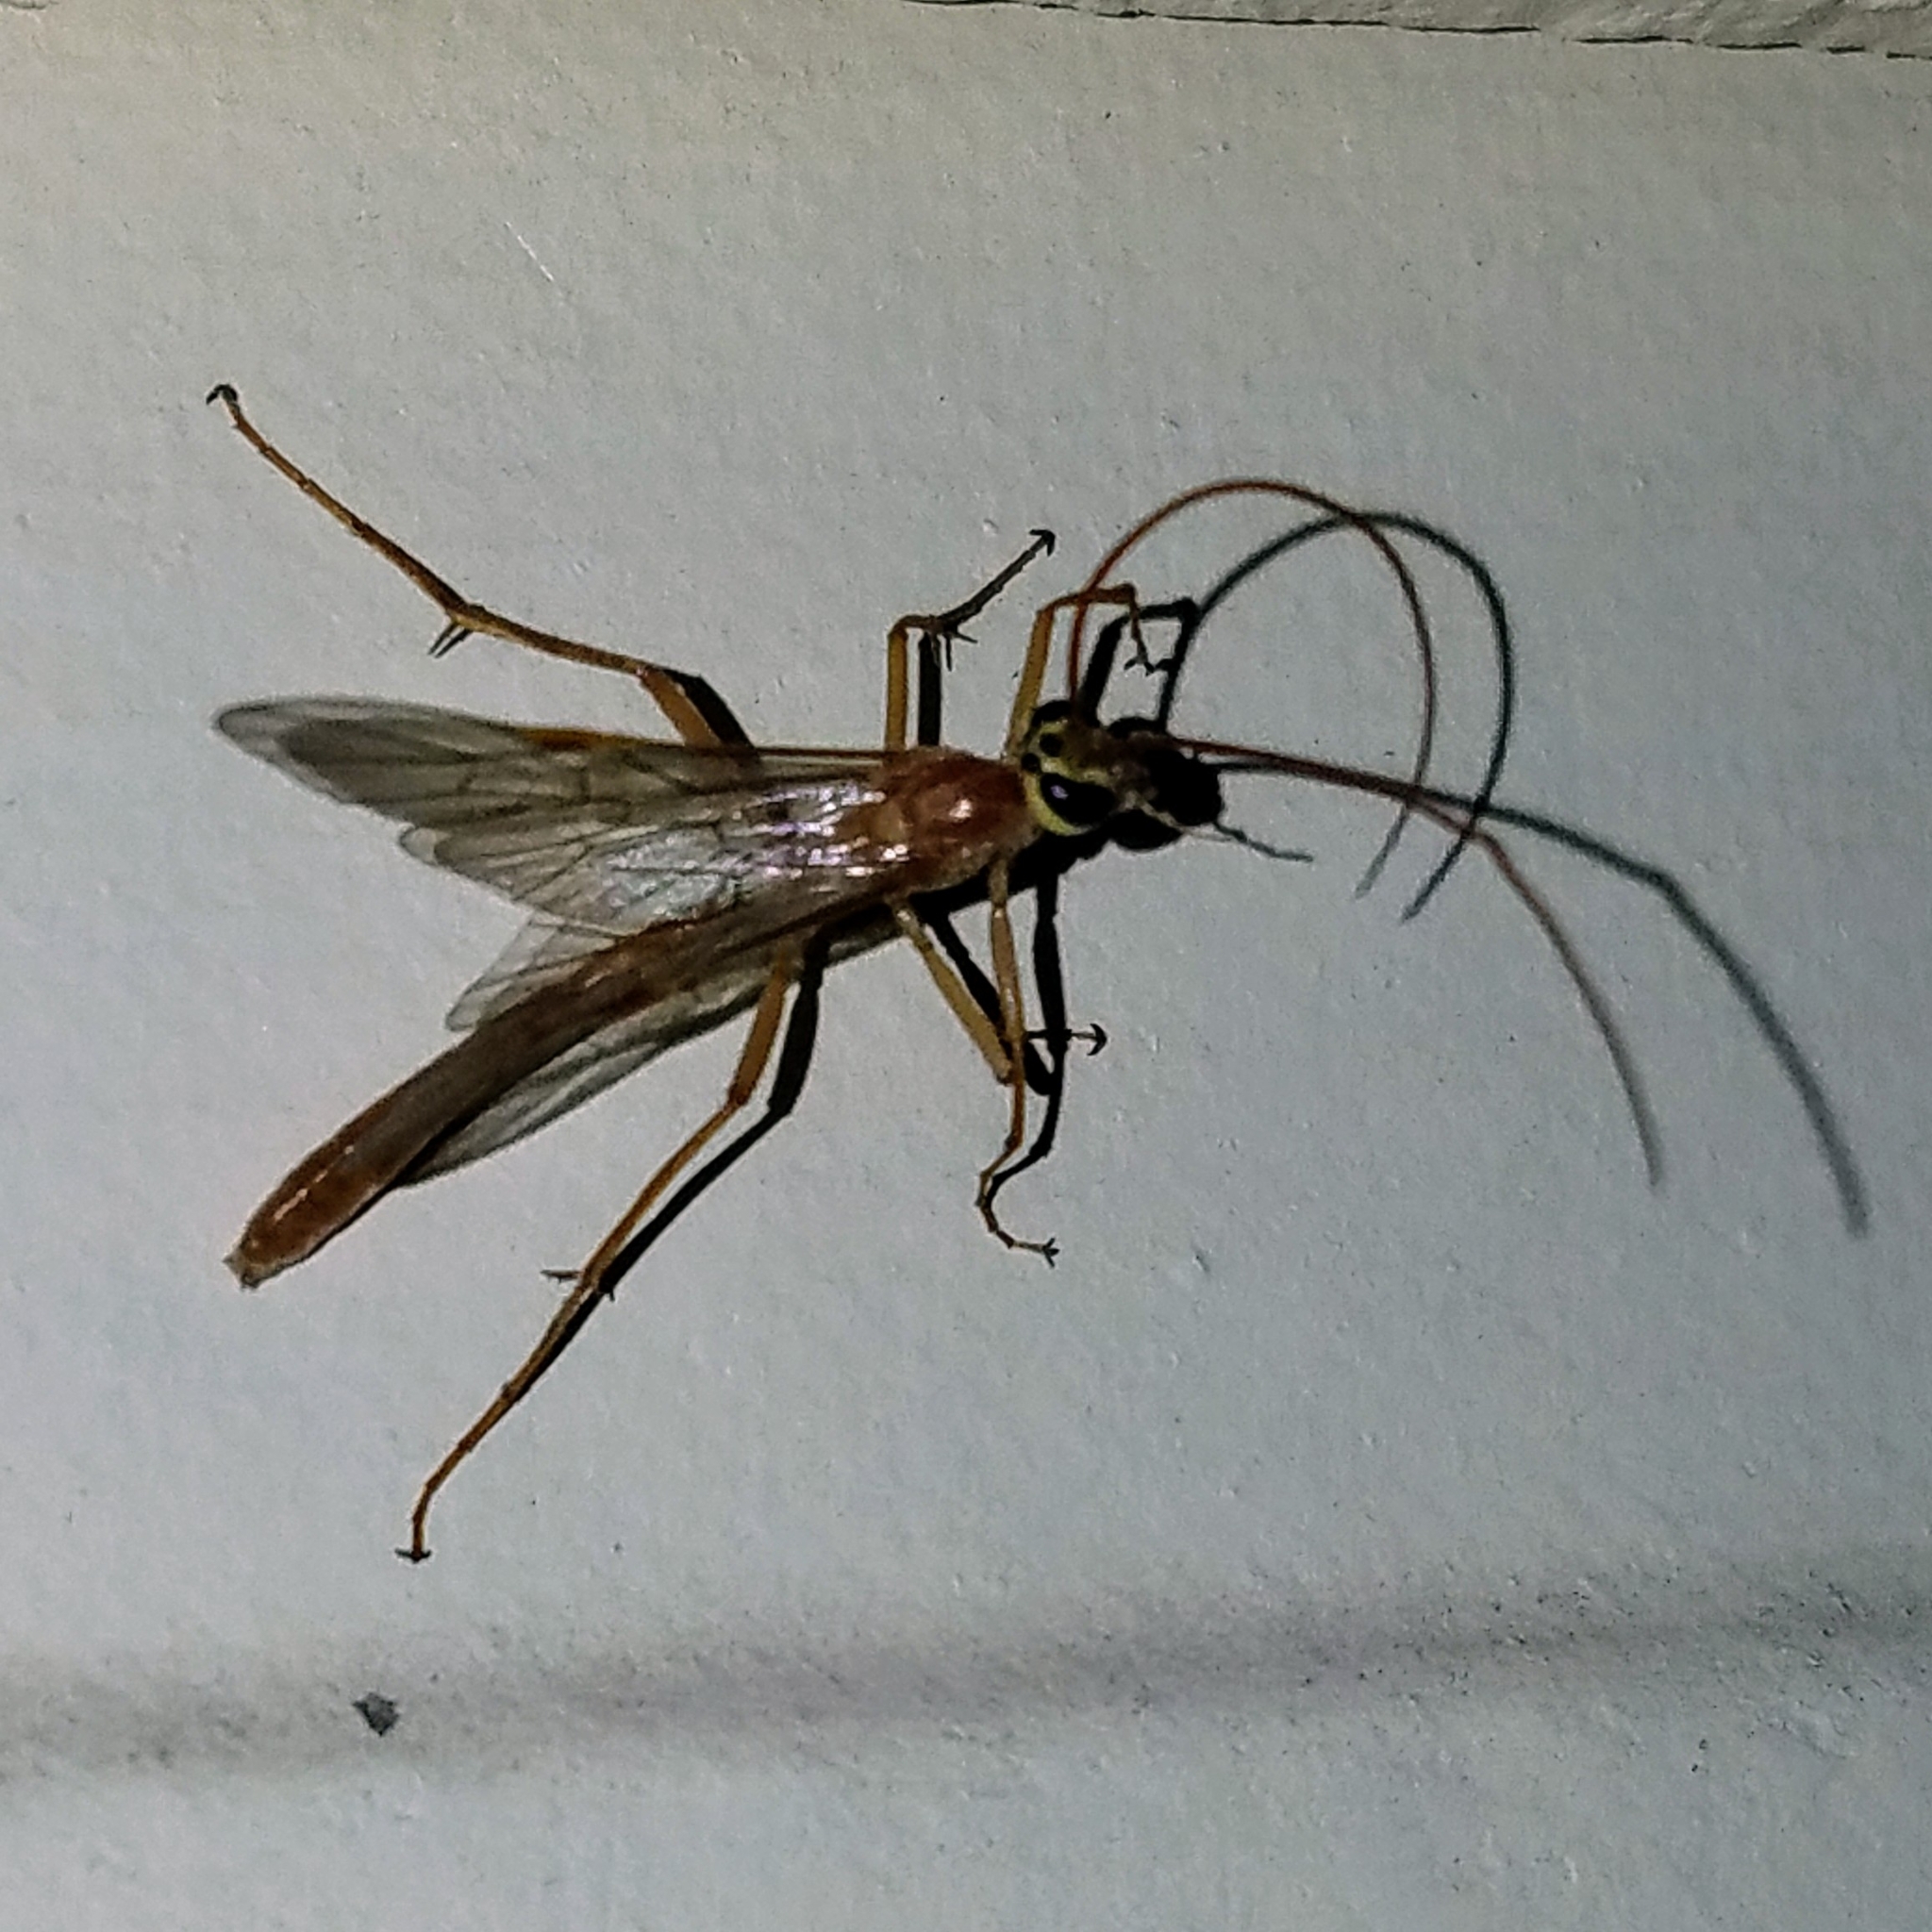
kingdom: Animalia
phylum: Arthropoda
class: Insecta
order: Hymenoptera
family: Ichneumonidae
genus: Ophion
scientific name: Ophion
